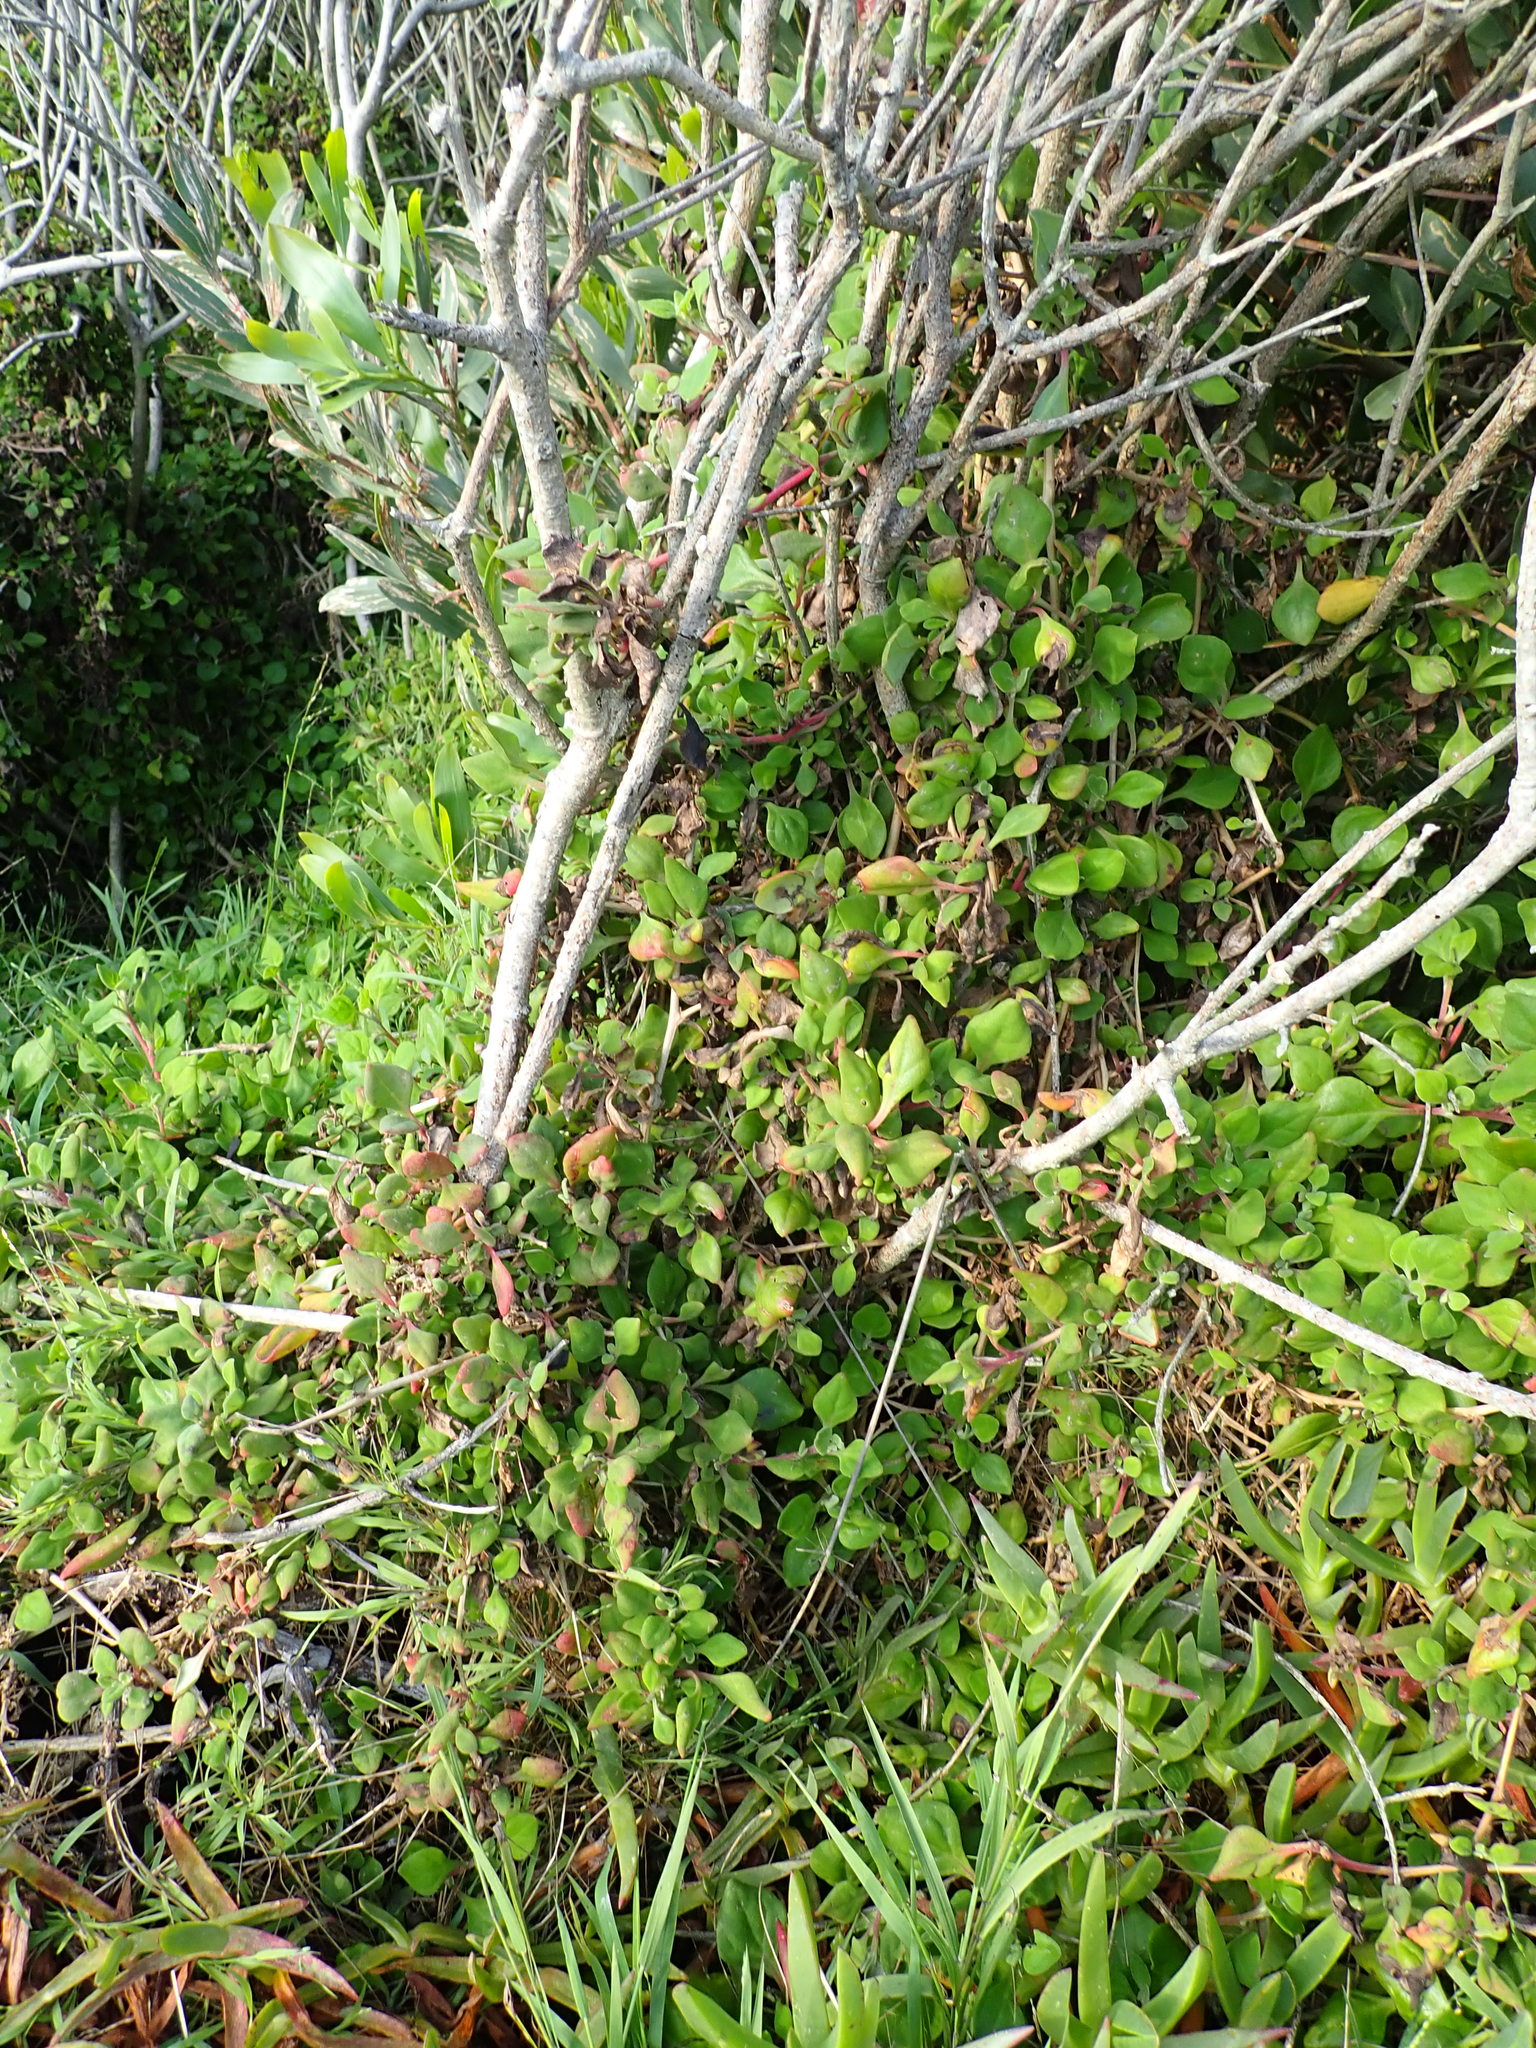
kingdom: Plantae
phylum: Tracheophyta
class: Magnoliopsida
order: Caryophyllales
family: Aizoaceae
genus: Tetragonia
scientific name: Tetragonia implexicoma
